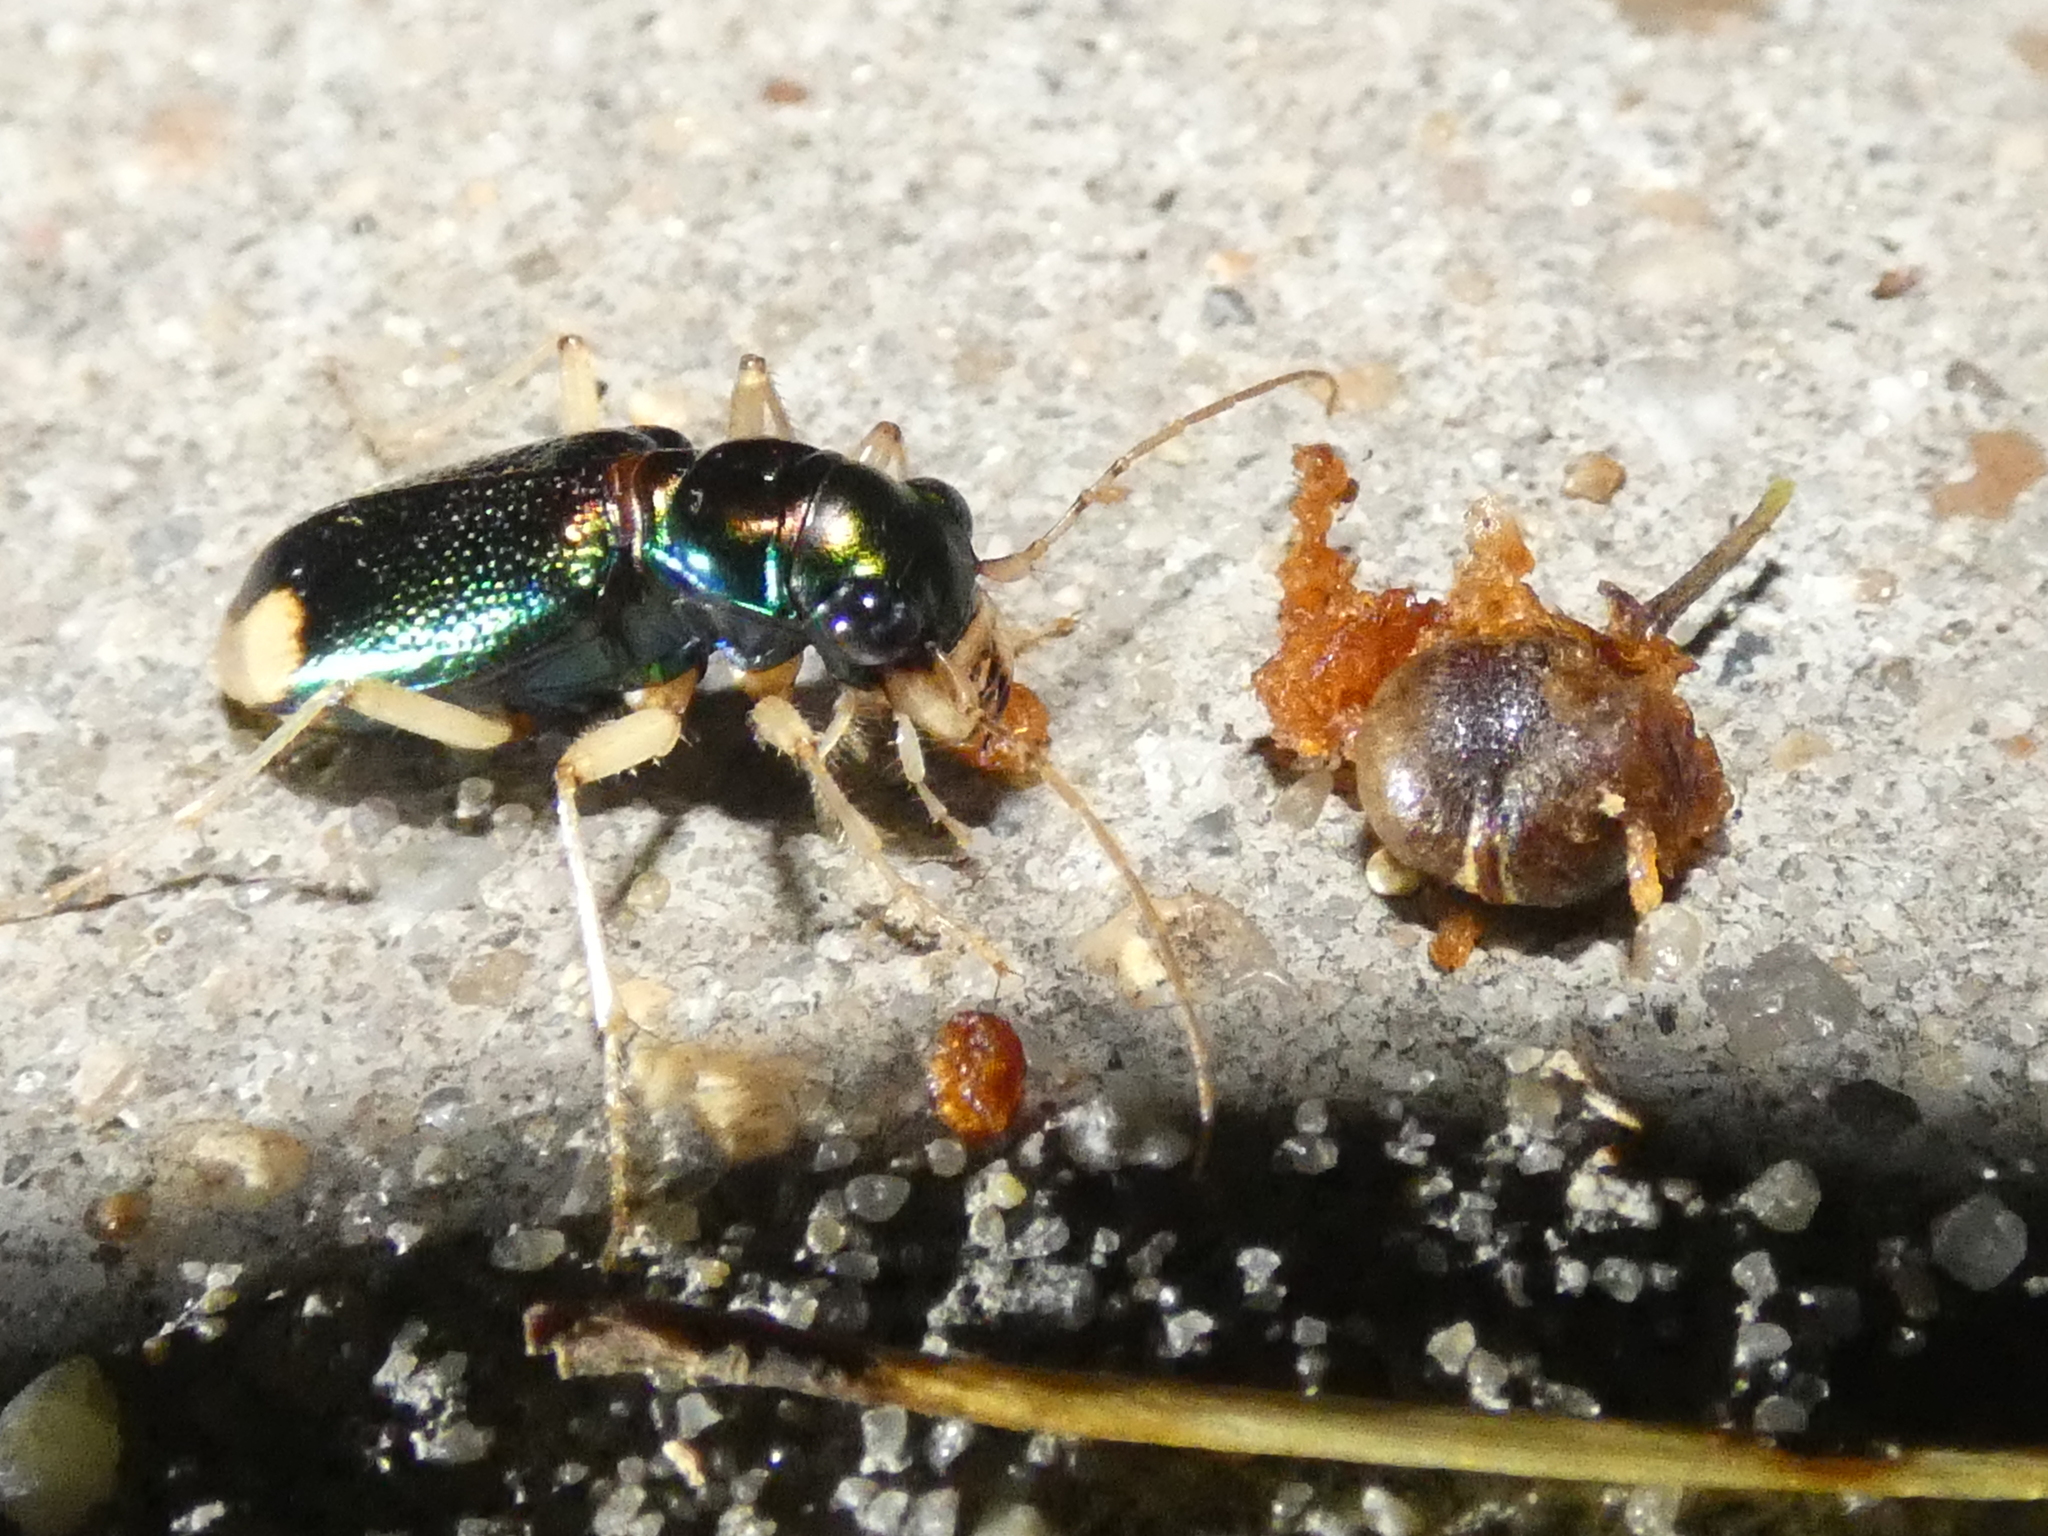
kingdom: Animalia
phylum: Arthropoda
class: Insecta
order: Coleoptera
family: Carabidae
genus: Tetracha
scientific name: Tetracha carolina
